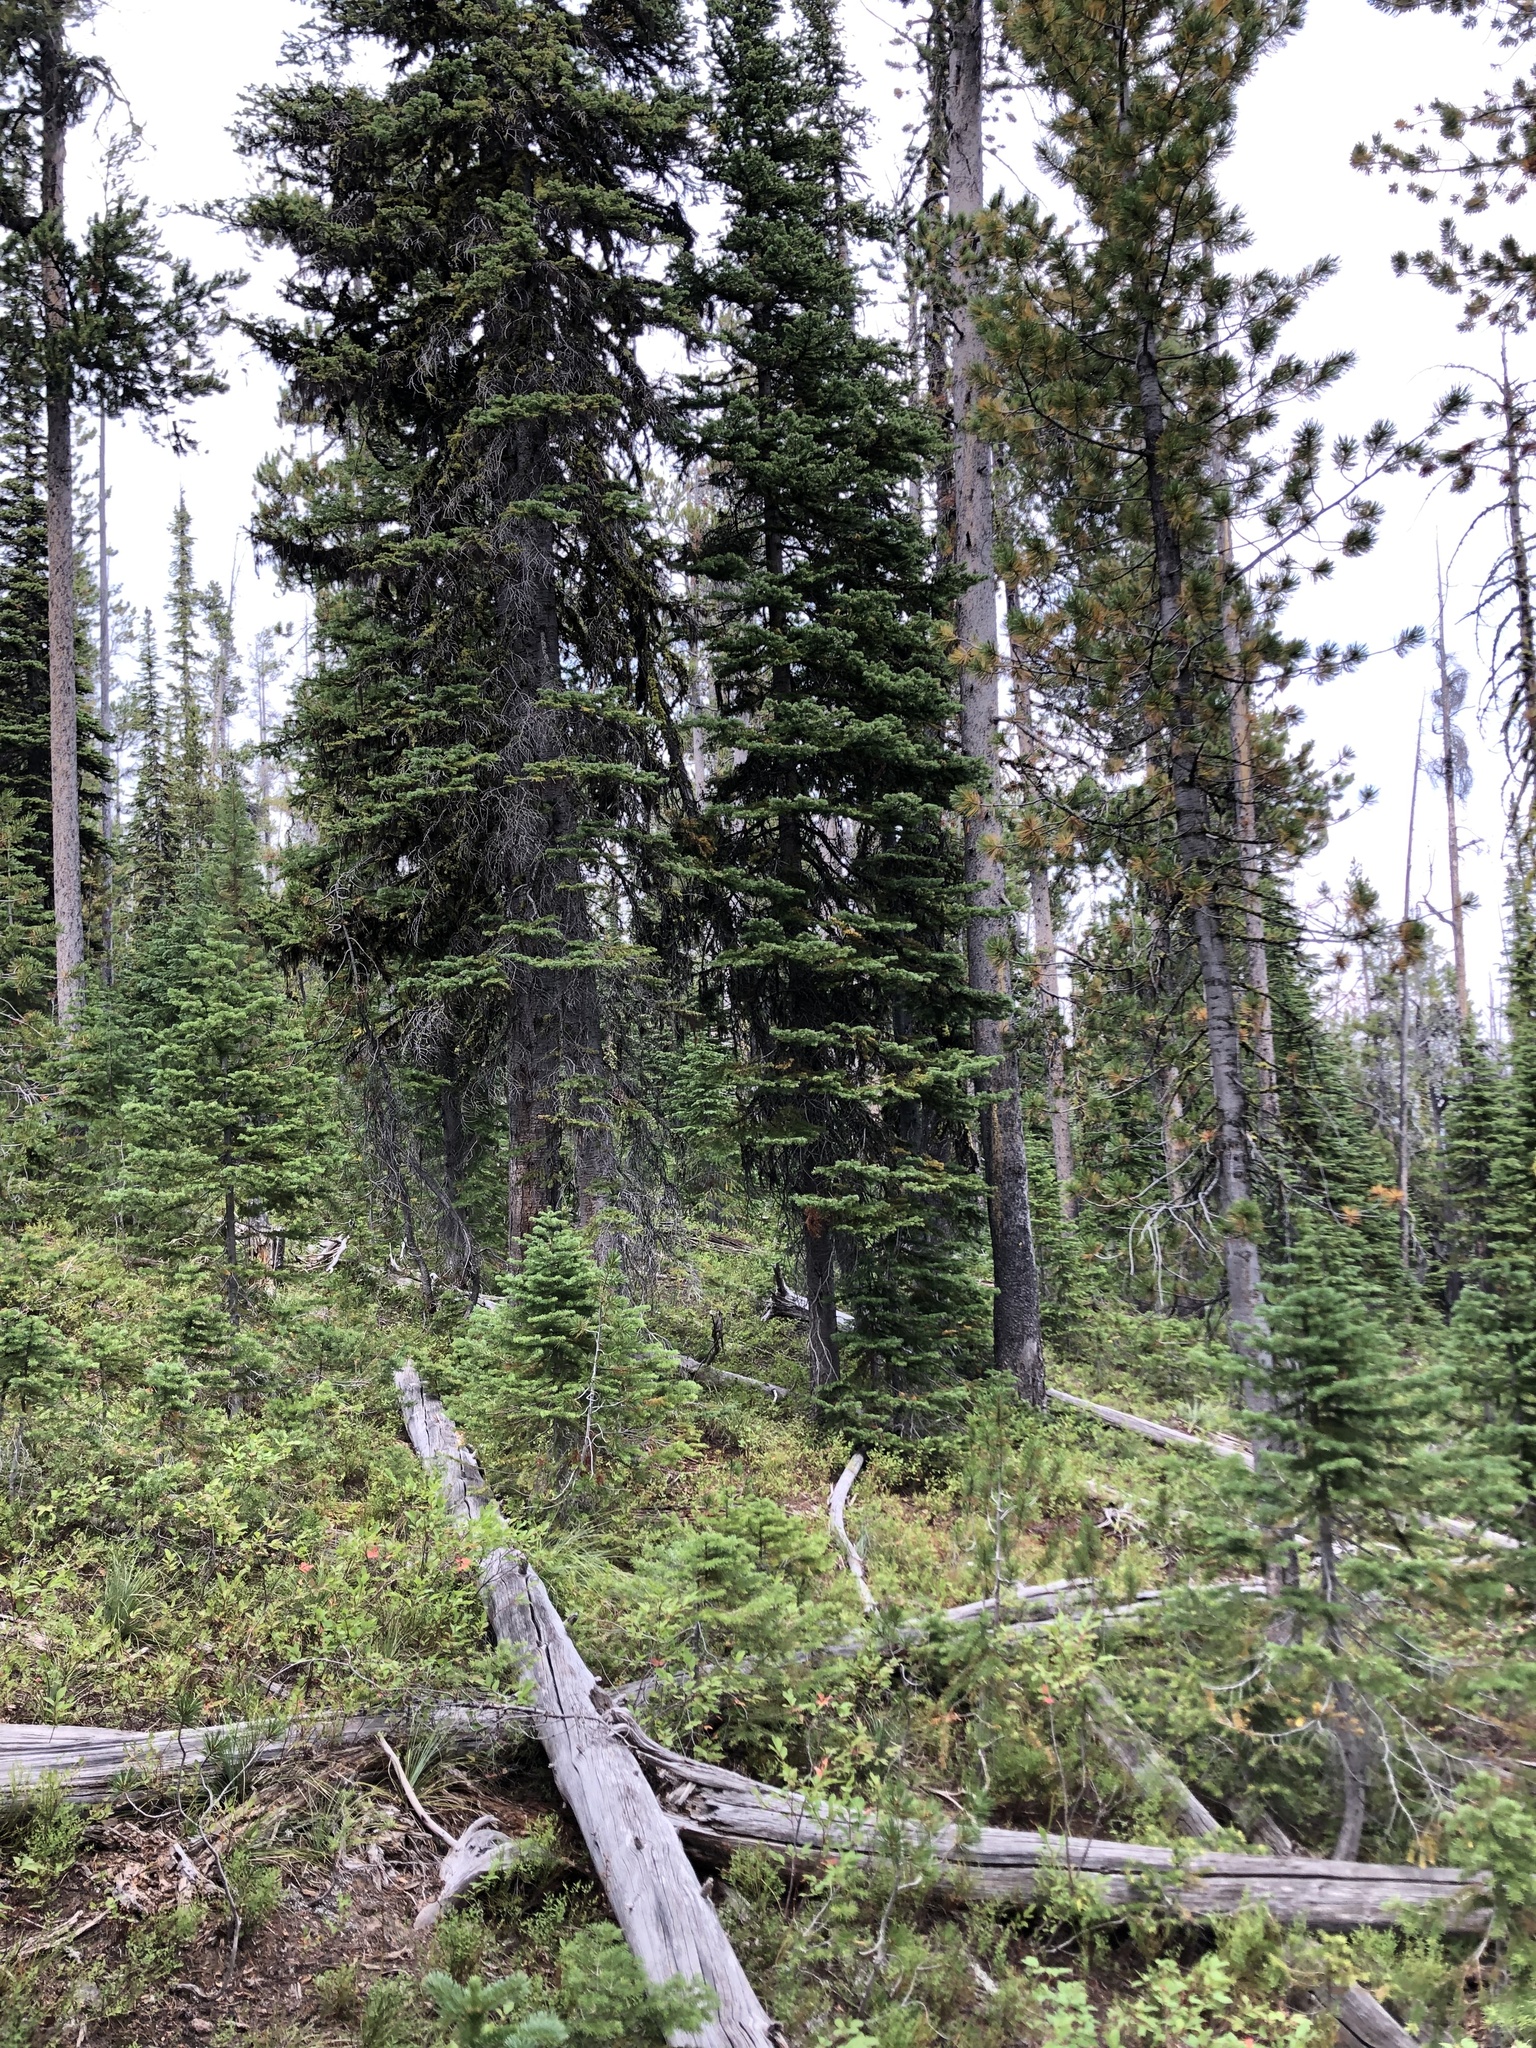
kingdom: Plantae
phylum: Tracheophyta
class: Magnoliopsida
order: Ericales
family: Ericaceae
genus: Allotropa
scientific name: Allotropa virgata
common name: Candy-striped allotropa
